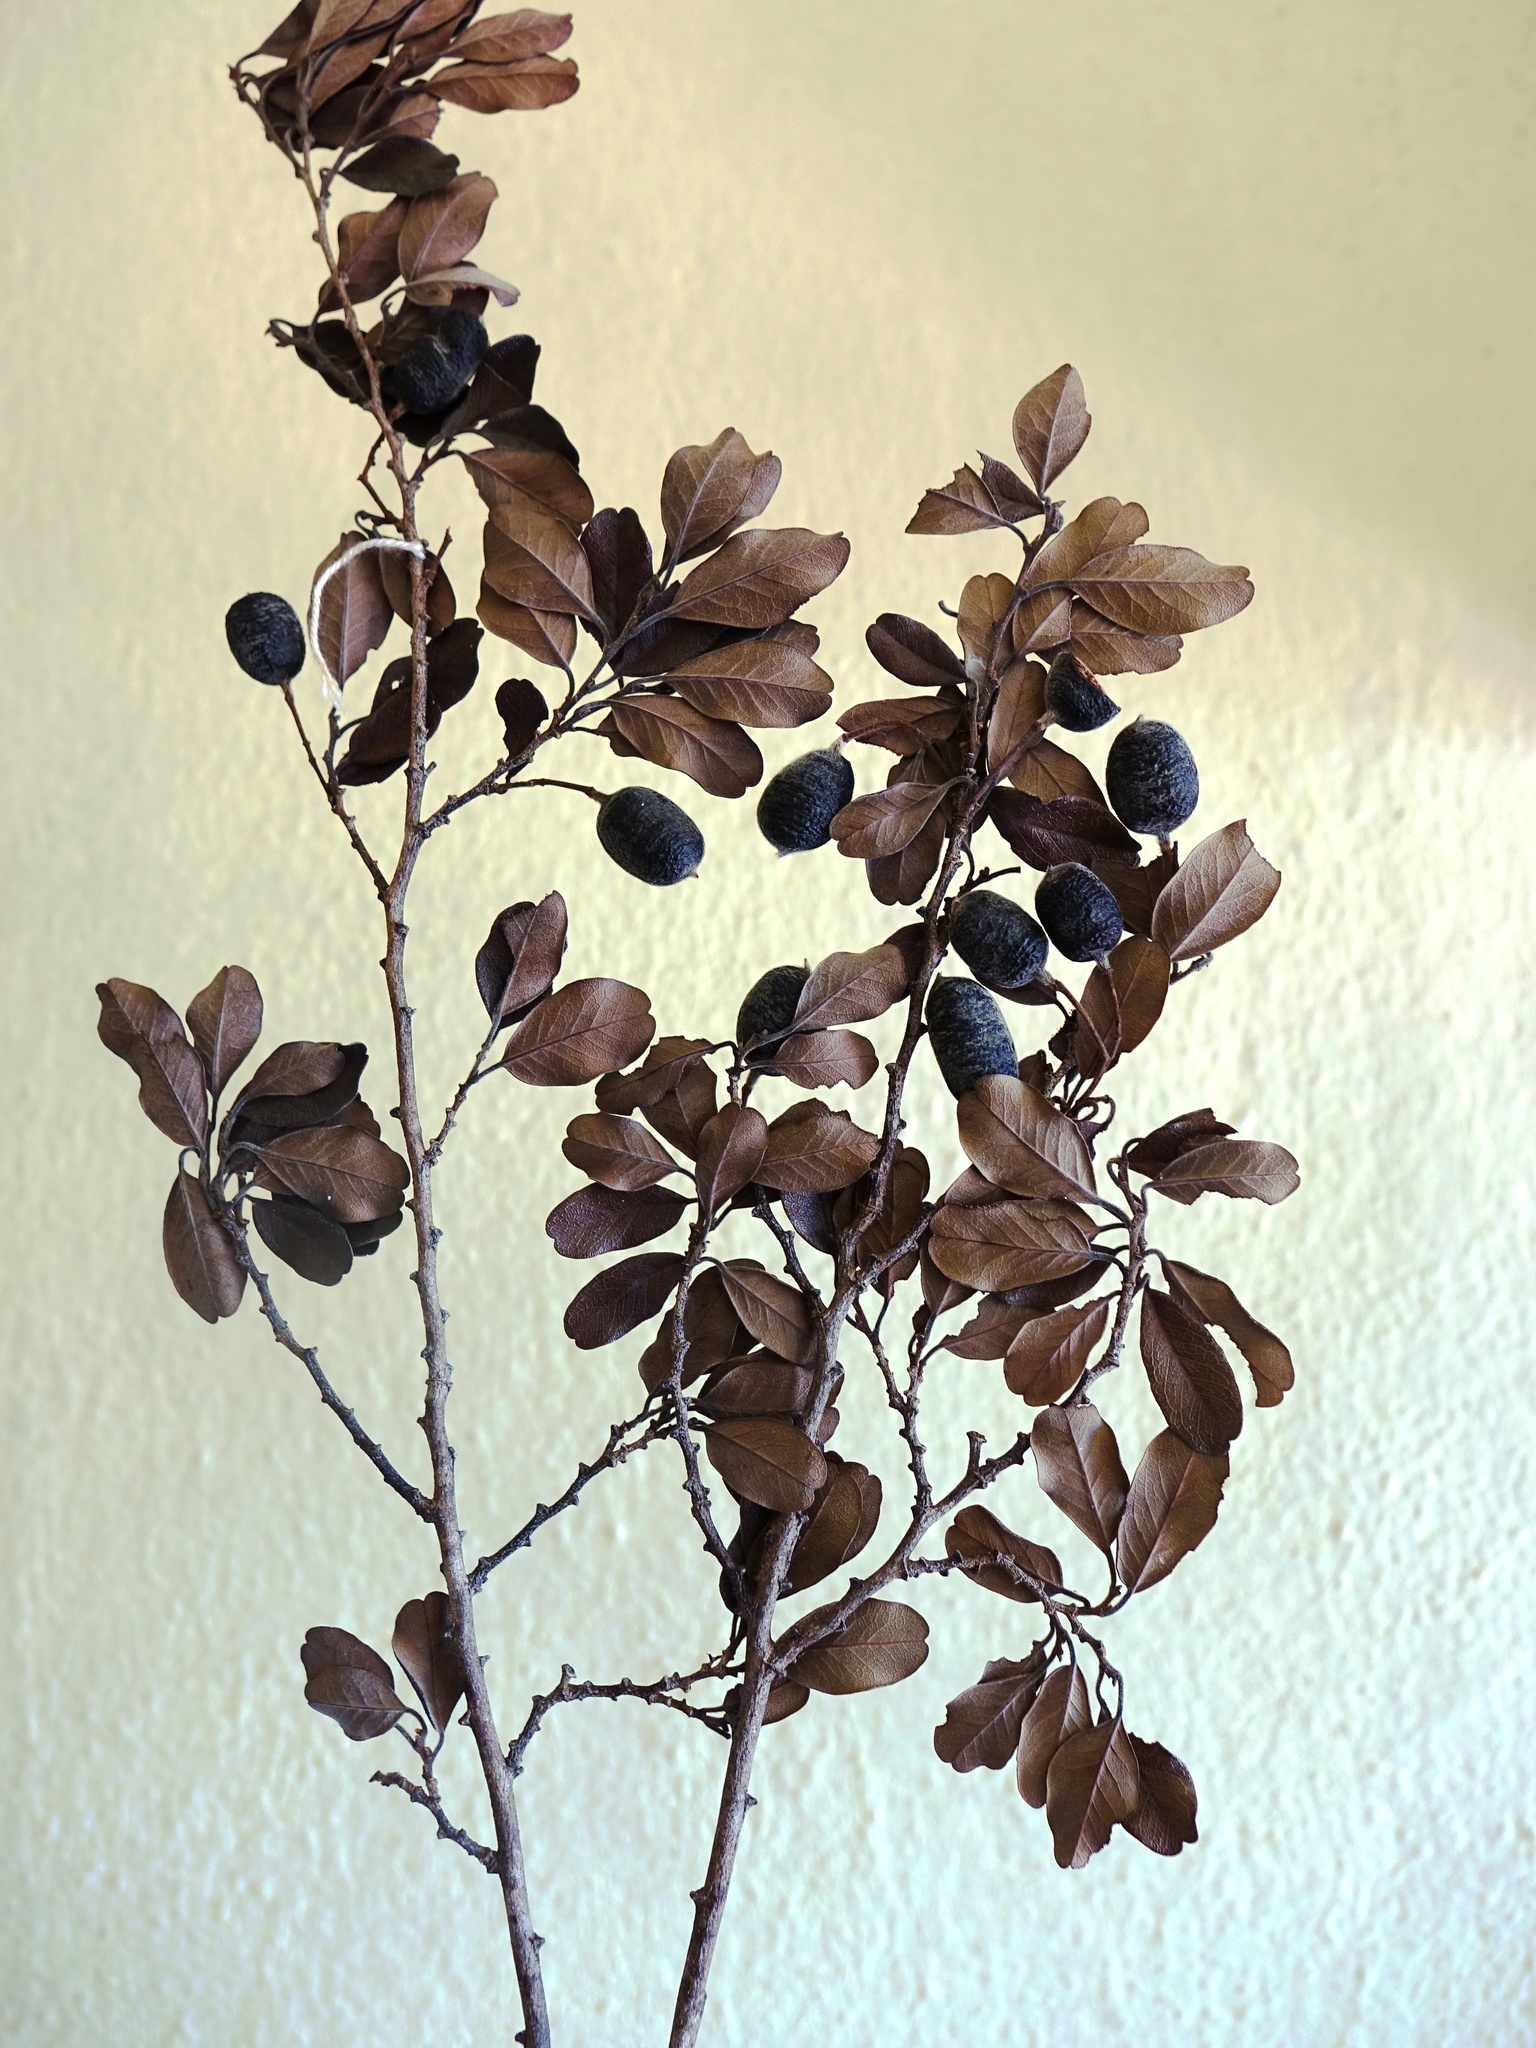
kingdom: Plantae
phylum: Tracheophyta
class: Magnoliopsida
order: Fabales
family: Fabaceae
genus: Baudouinia
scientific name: Baudouinia fluggeiformis
